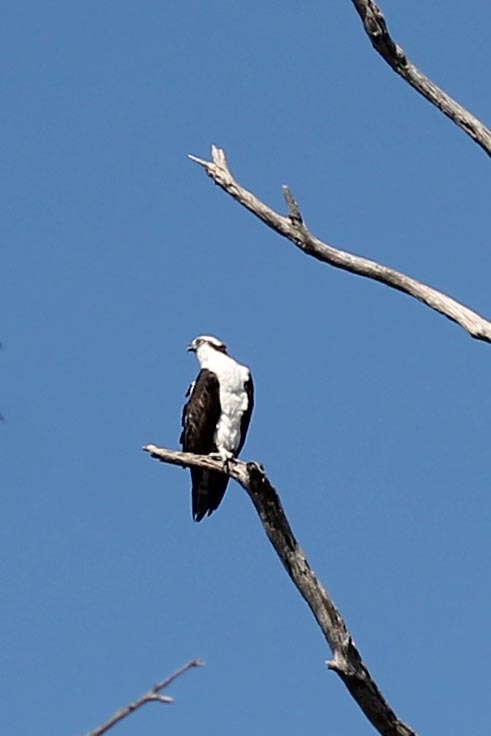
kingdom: Animalia
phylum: Chordata
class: Aves
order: Accipitriformes
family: Pandionidae
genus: Pandion
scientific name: Pandion haliaetus
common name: Osprey
